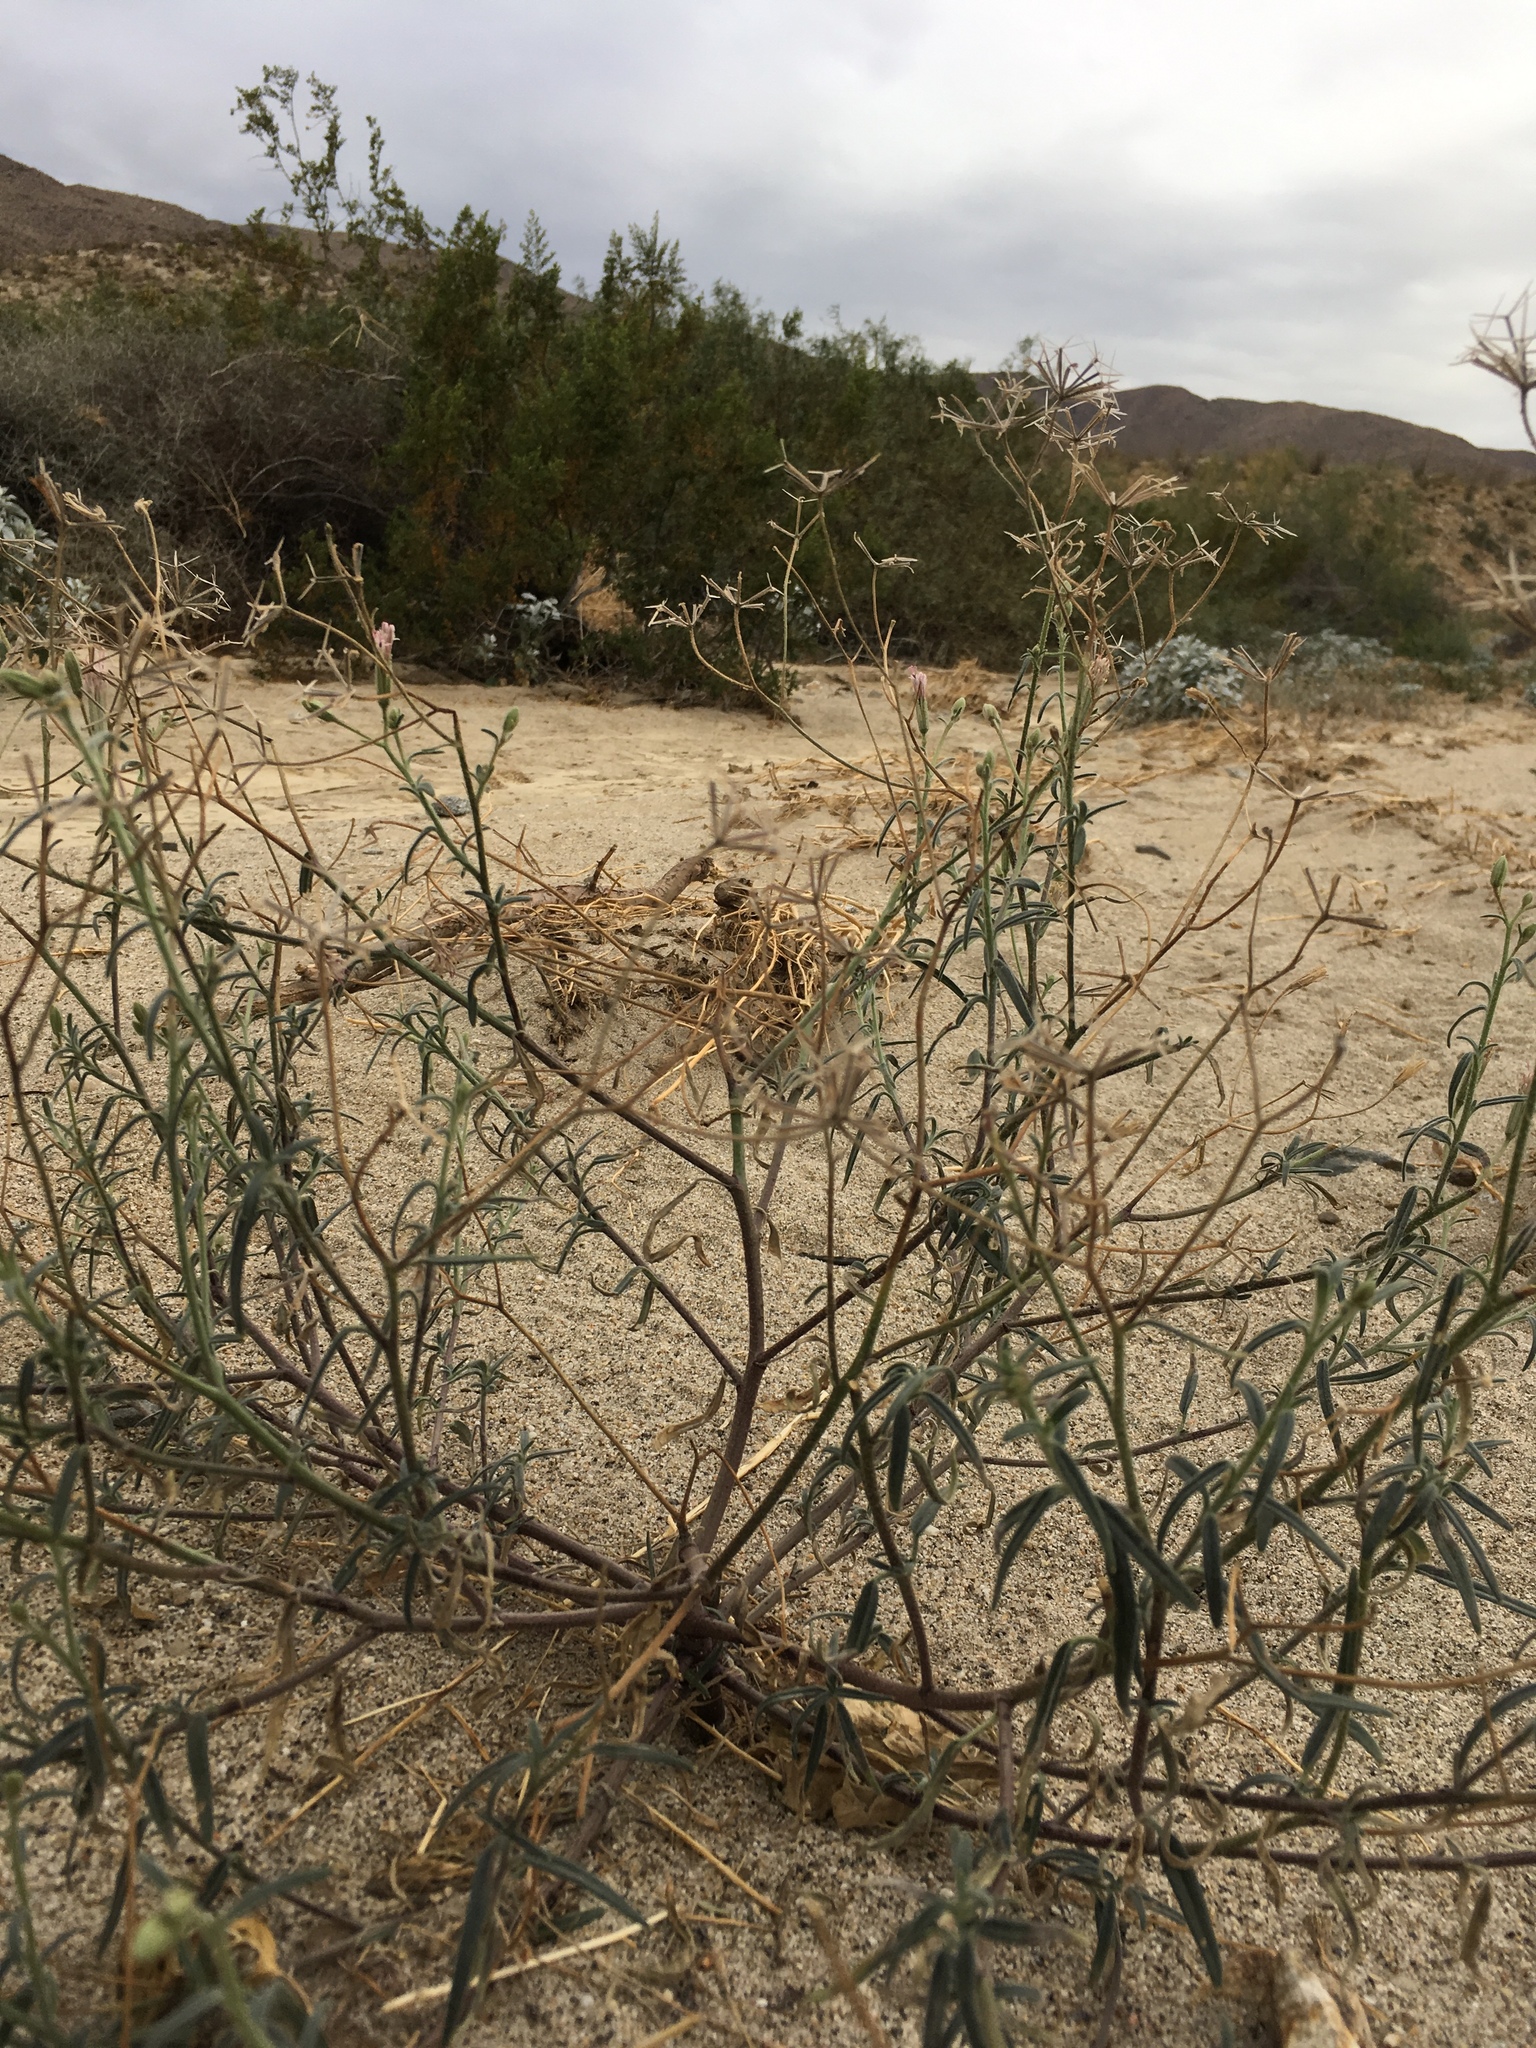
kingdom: Plantae
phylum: Tracheophyta
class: Magnoliopsida
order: Asterales
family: Asteraceae
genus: Palafoxia
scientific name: Palafoxia arida
